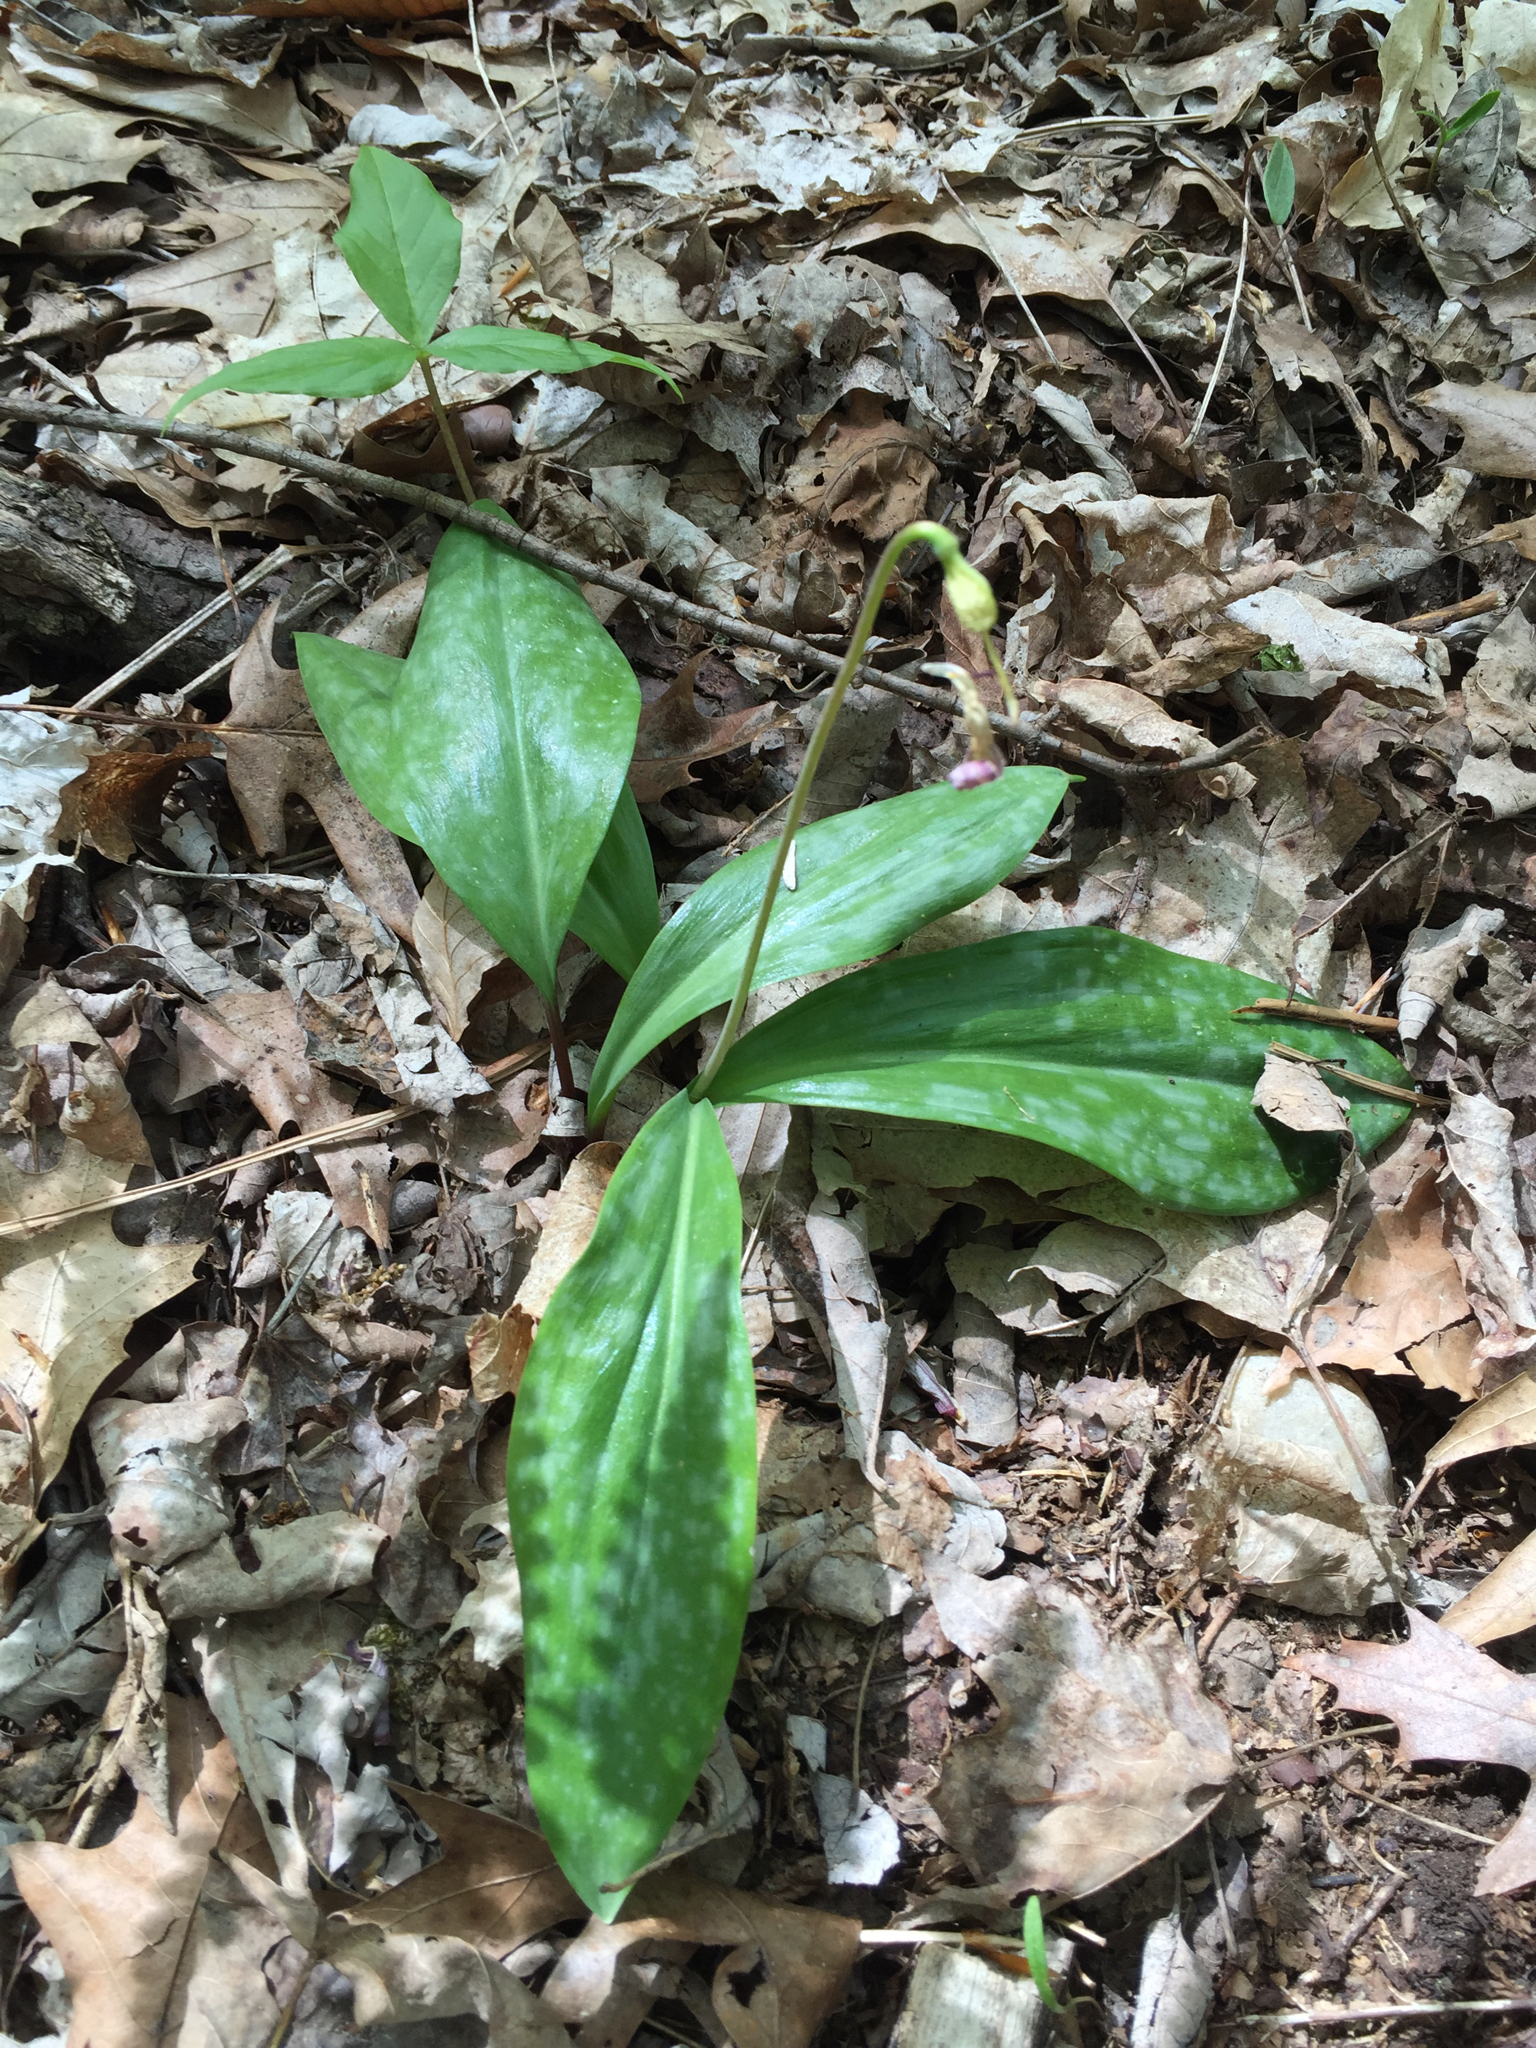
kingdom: Plantae
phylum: Tracheophyta
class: Liliopsida
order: Liliales
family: Liliaceae
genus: Erythronium
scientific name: Erythronium americanum
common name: Yellow adder's-tongue
